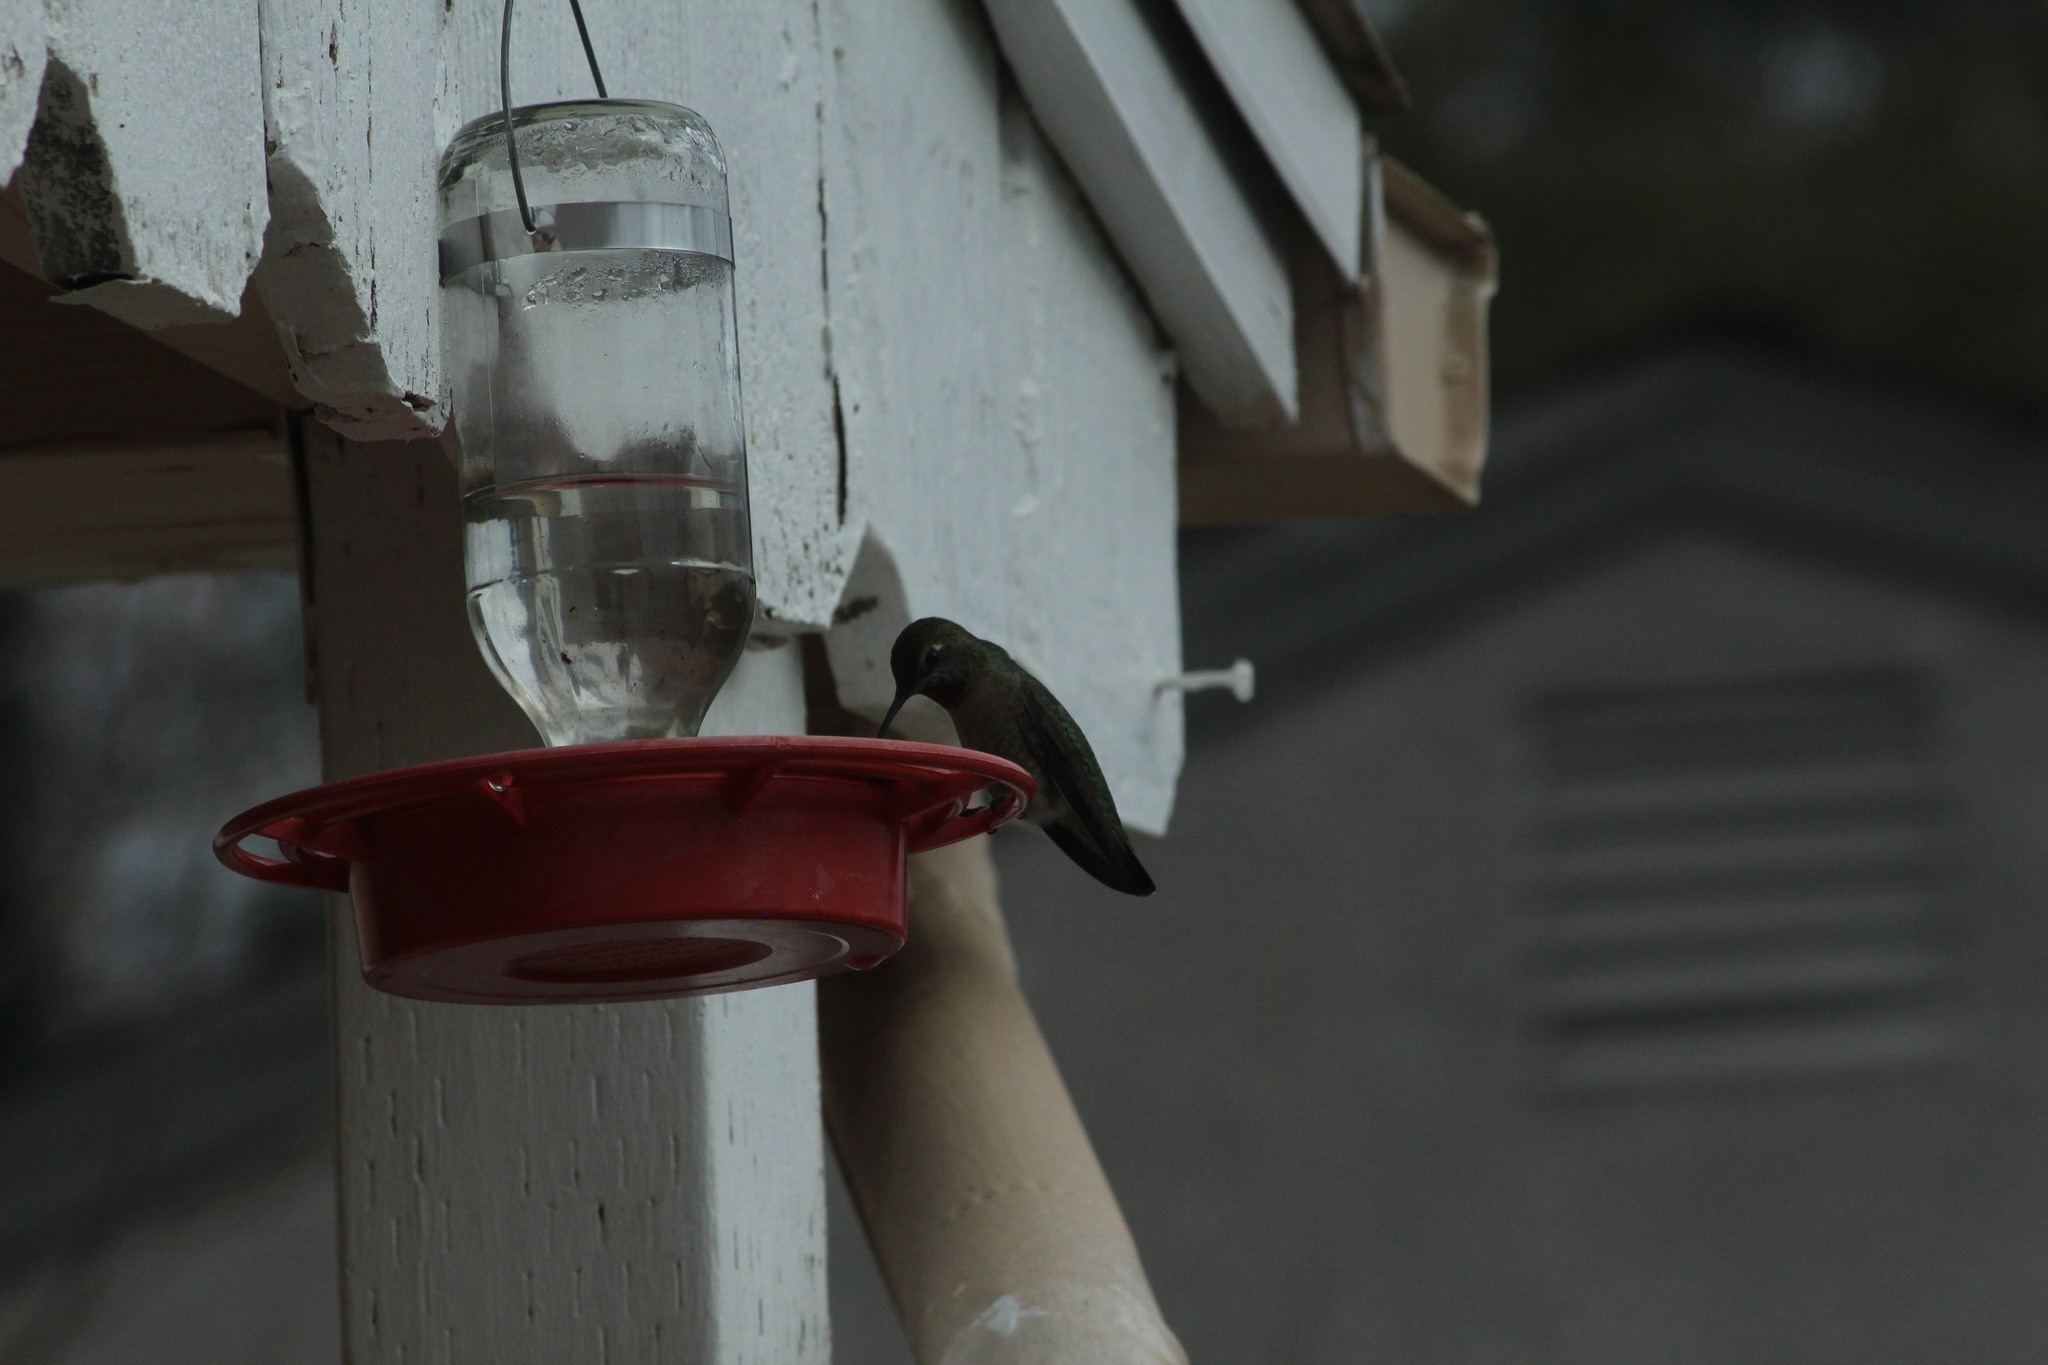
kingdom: Animalia
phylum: Chordata
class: Aves
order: Apodiformes
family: Trochilidae
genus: Calypte
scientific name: Calypte anna
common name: Anna's hummingbird
